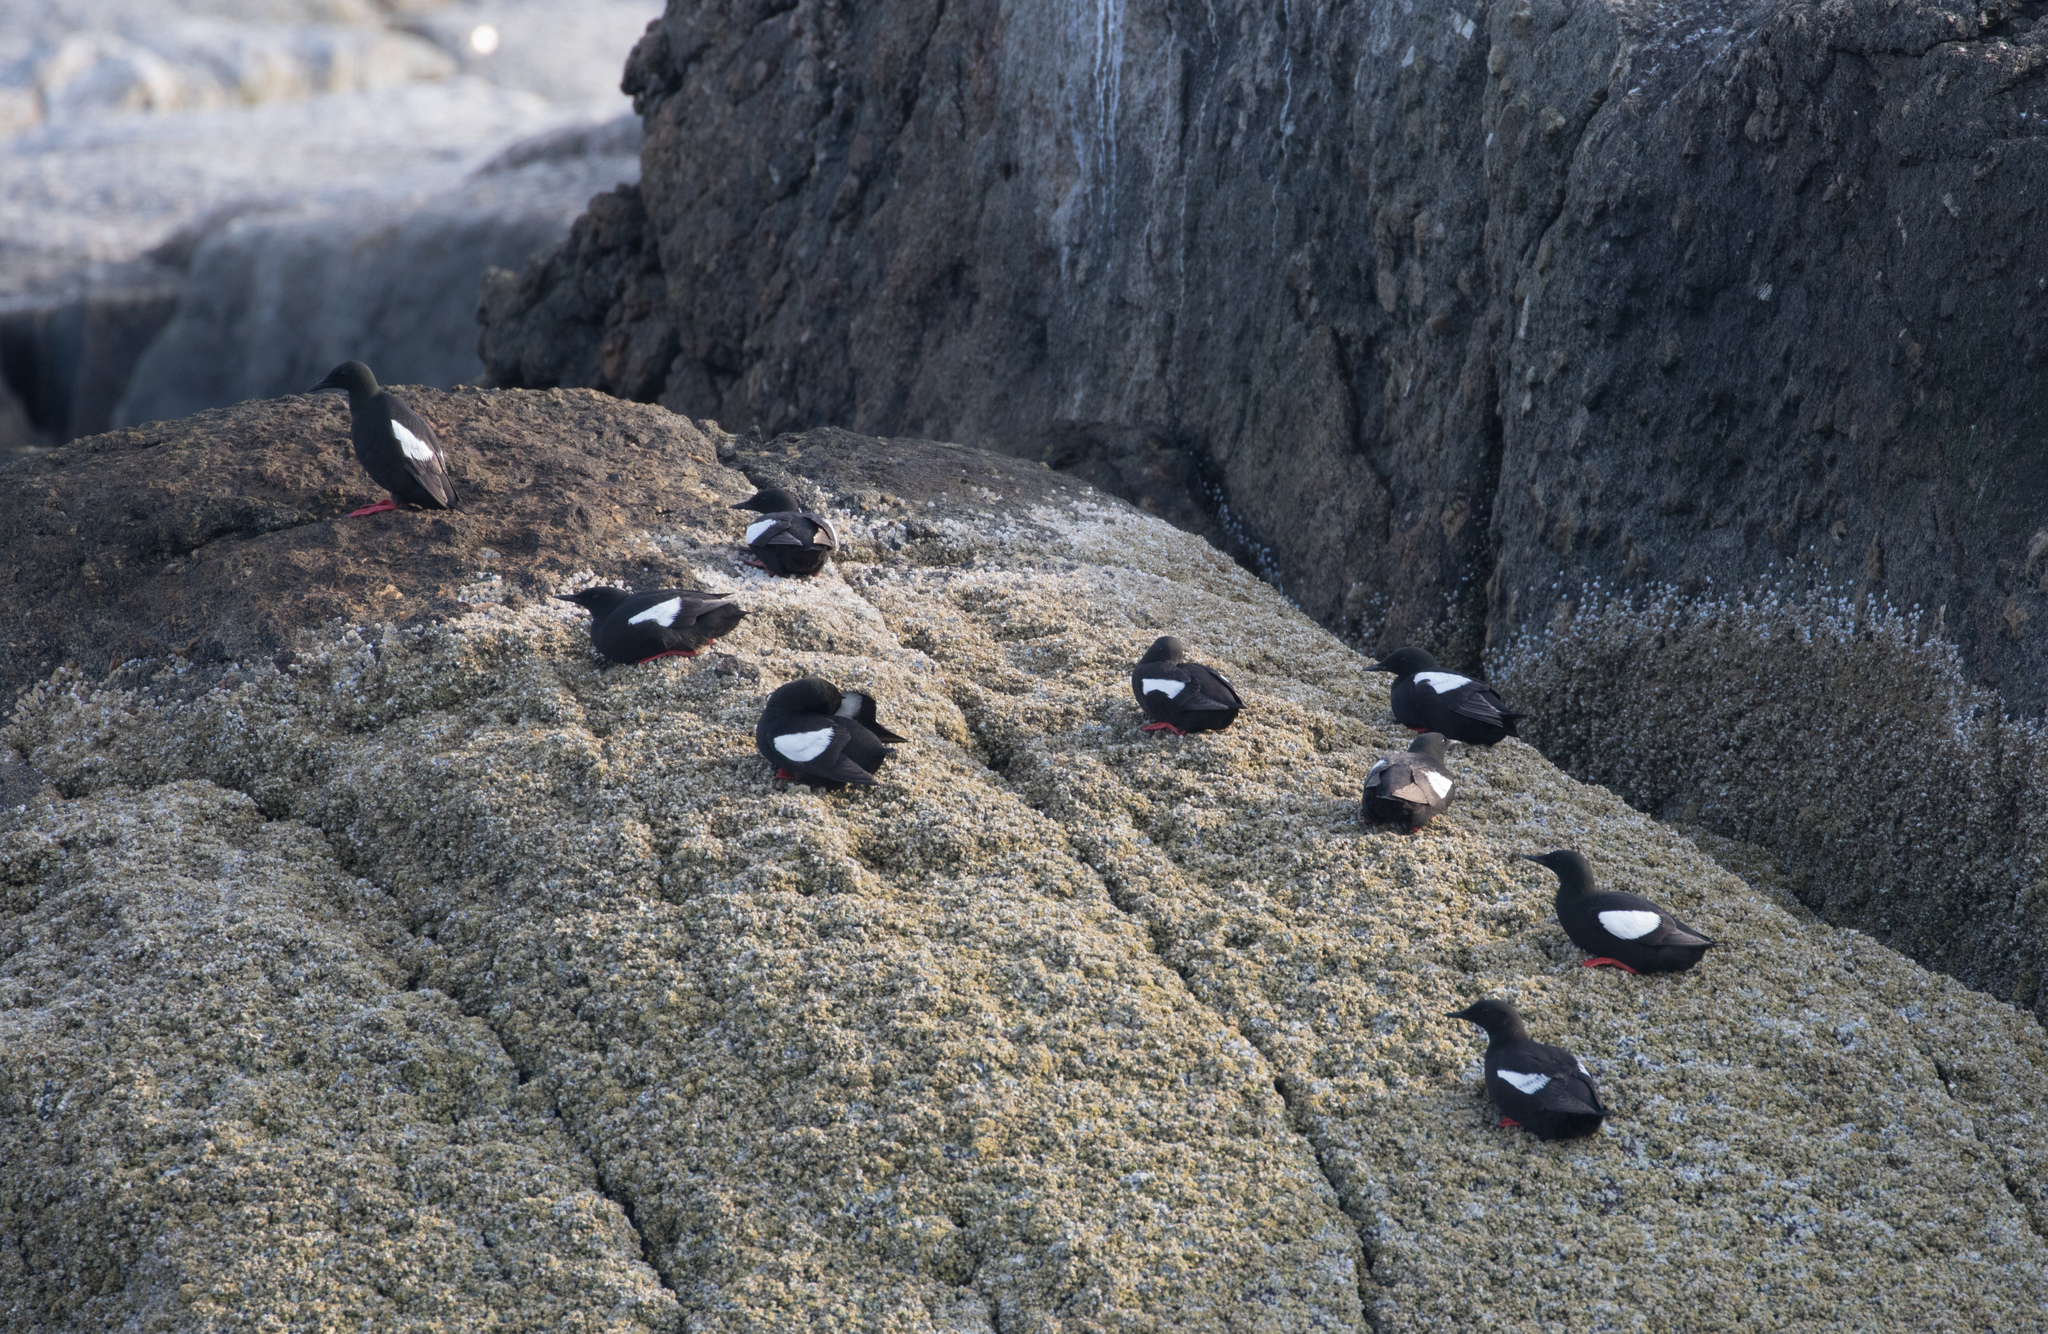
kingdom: Animalia
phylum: Chordata
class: Aves
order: Charadriiformes
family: Alcidae
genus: Cepphus
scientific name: Cepphus grylle
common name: Black guillemot
